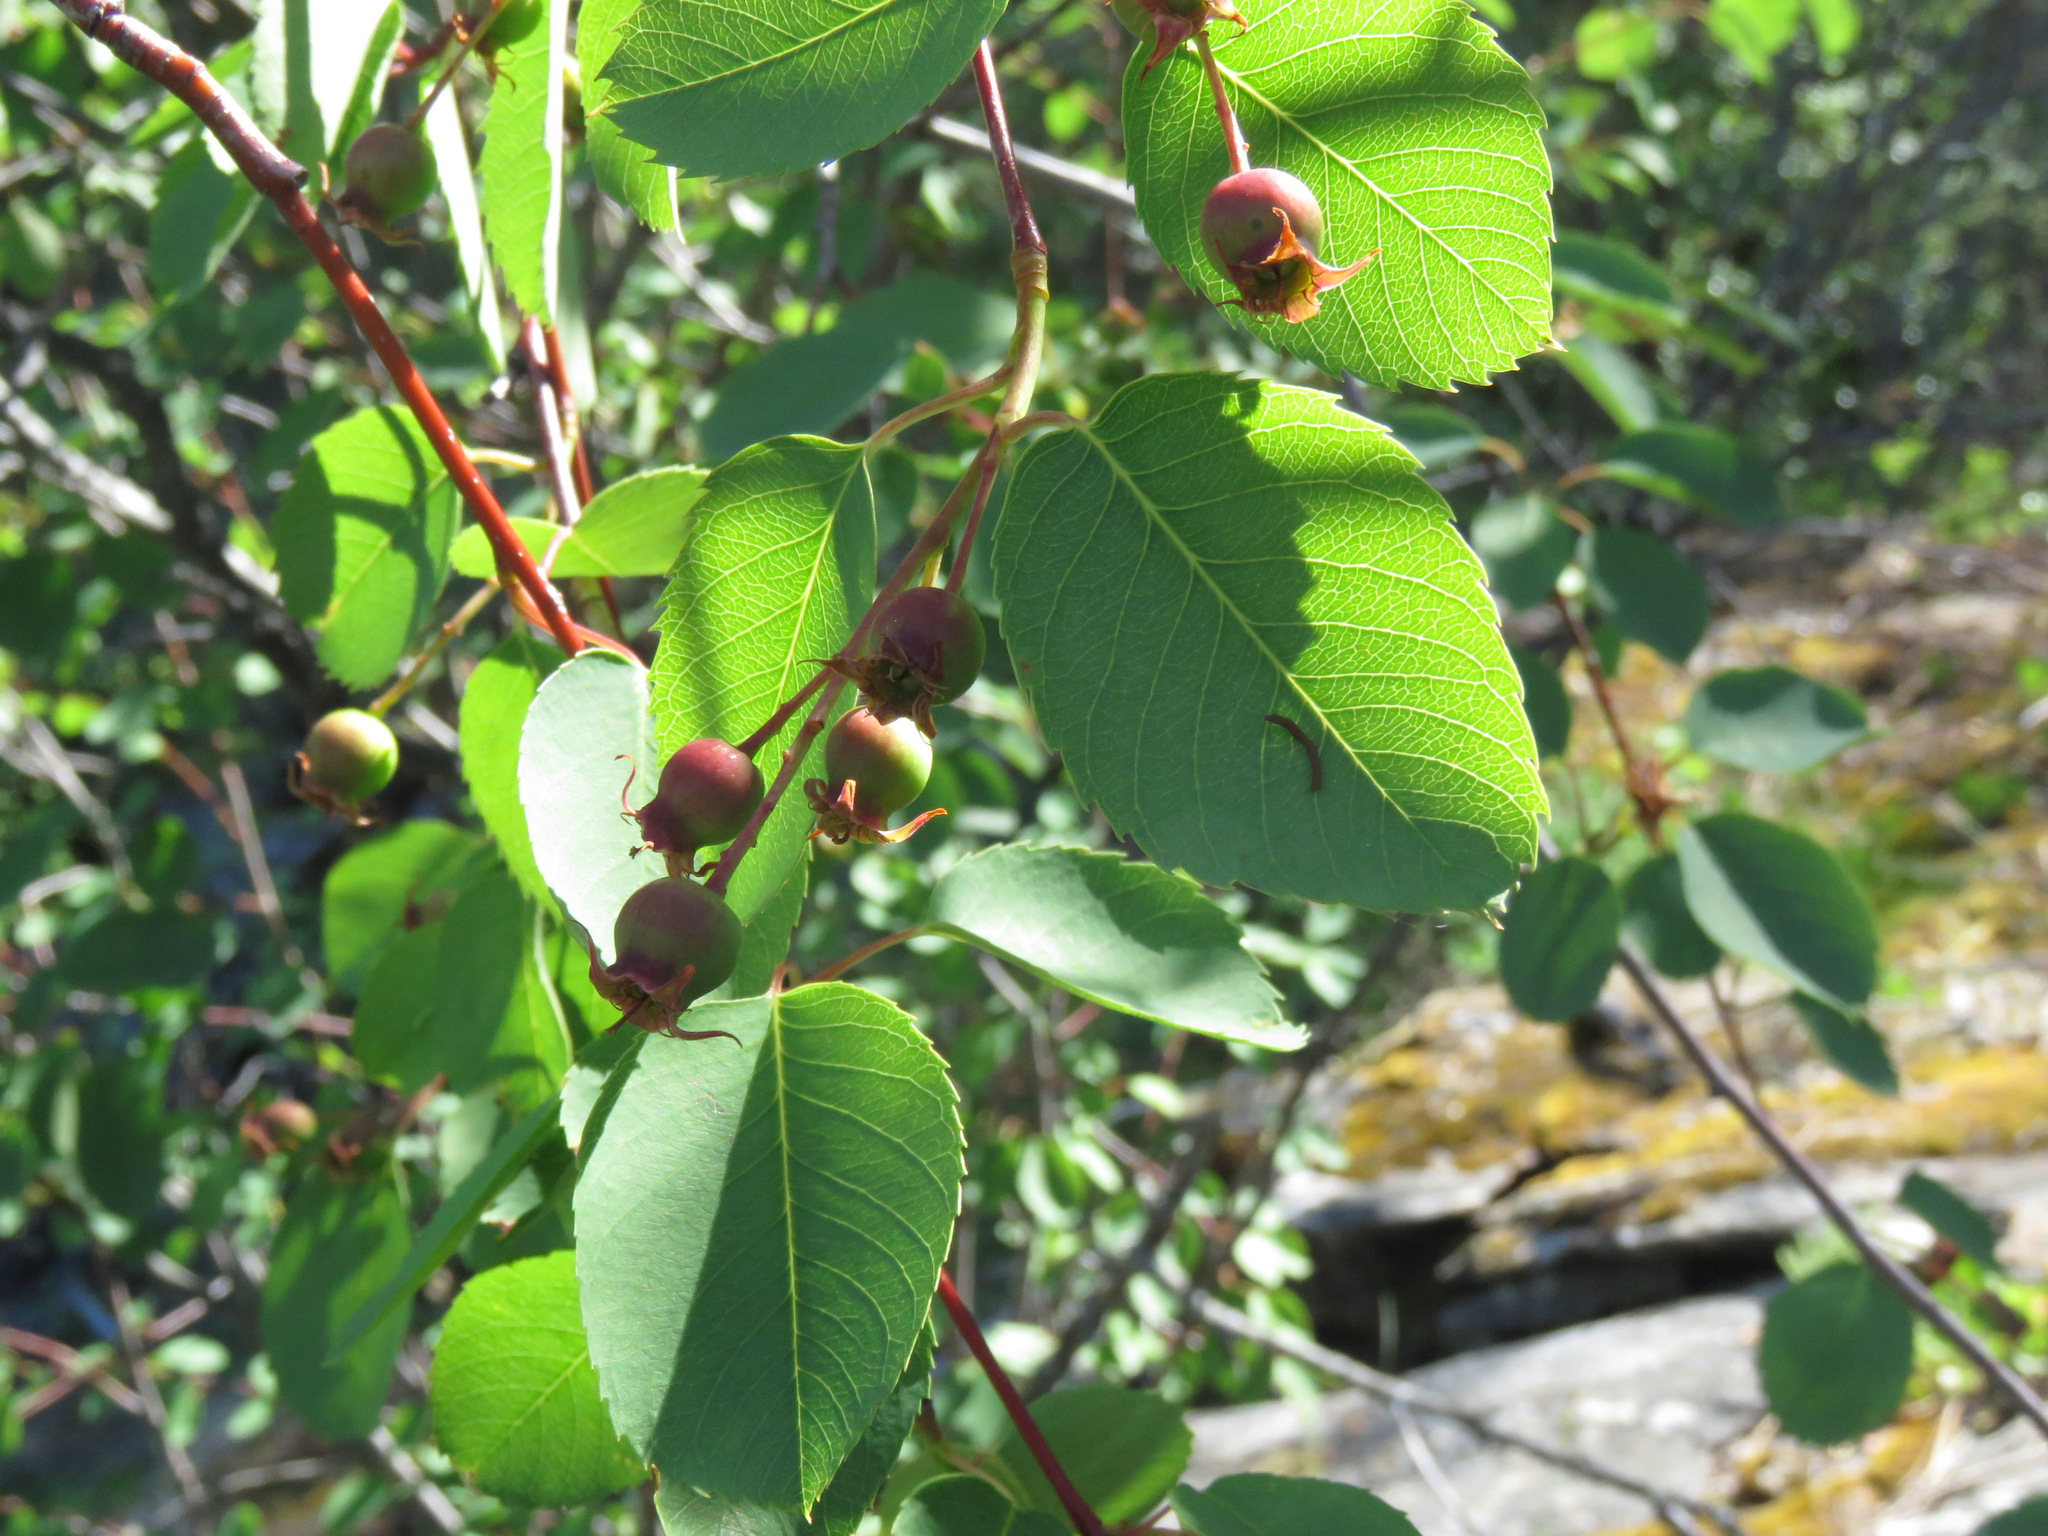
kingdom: Plantae
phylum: Tracheophyta
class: Magnoliopsida
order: Rosales
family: Rosaceae
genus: Amelanchier
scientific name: Amelanchier alnifolia
